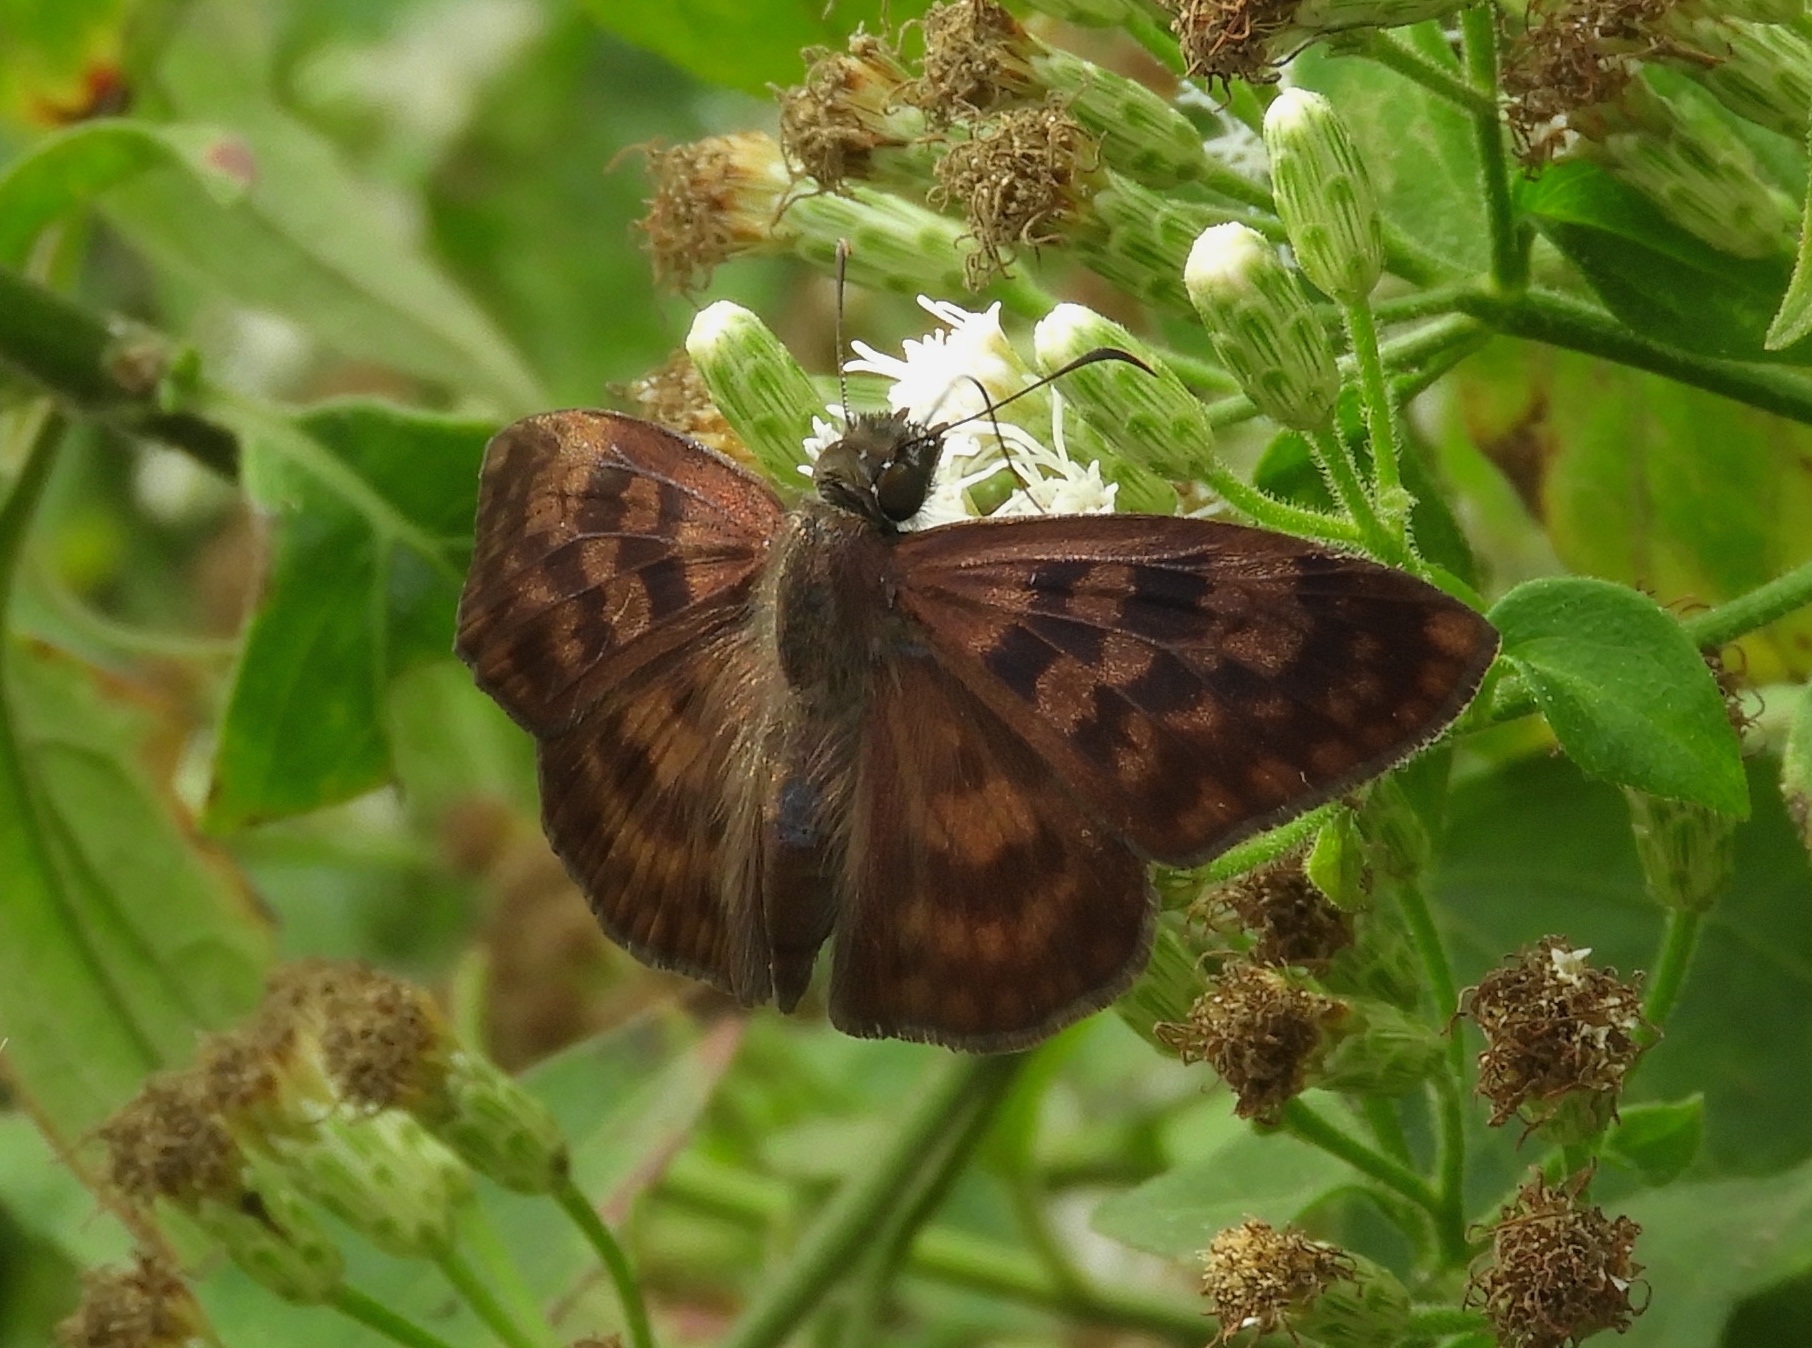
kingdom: Animalia
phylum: Arthropoda
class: Insecta
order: Lepidoptera
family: Hesperiidae
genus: Anastrus
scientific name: Anastrus Echelatus sempiternus
